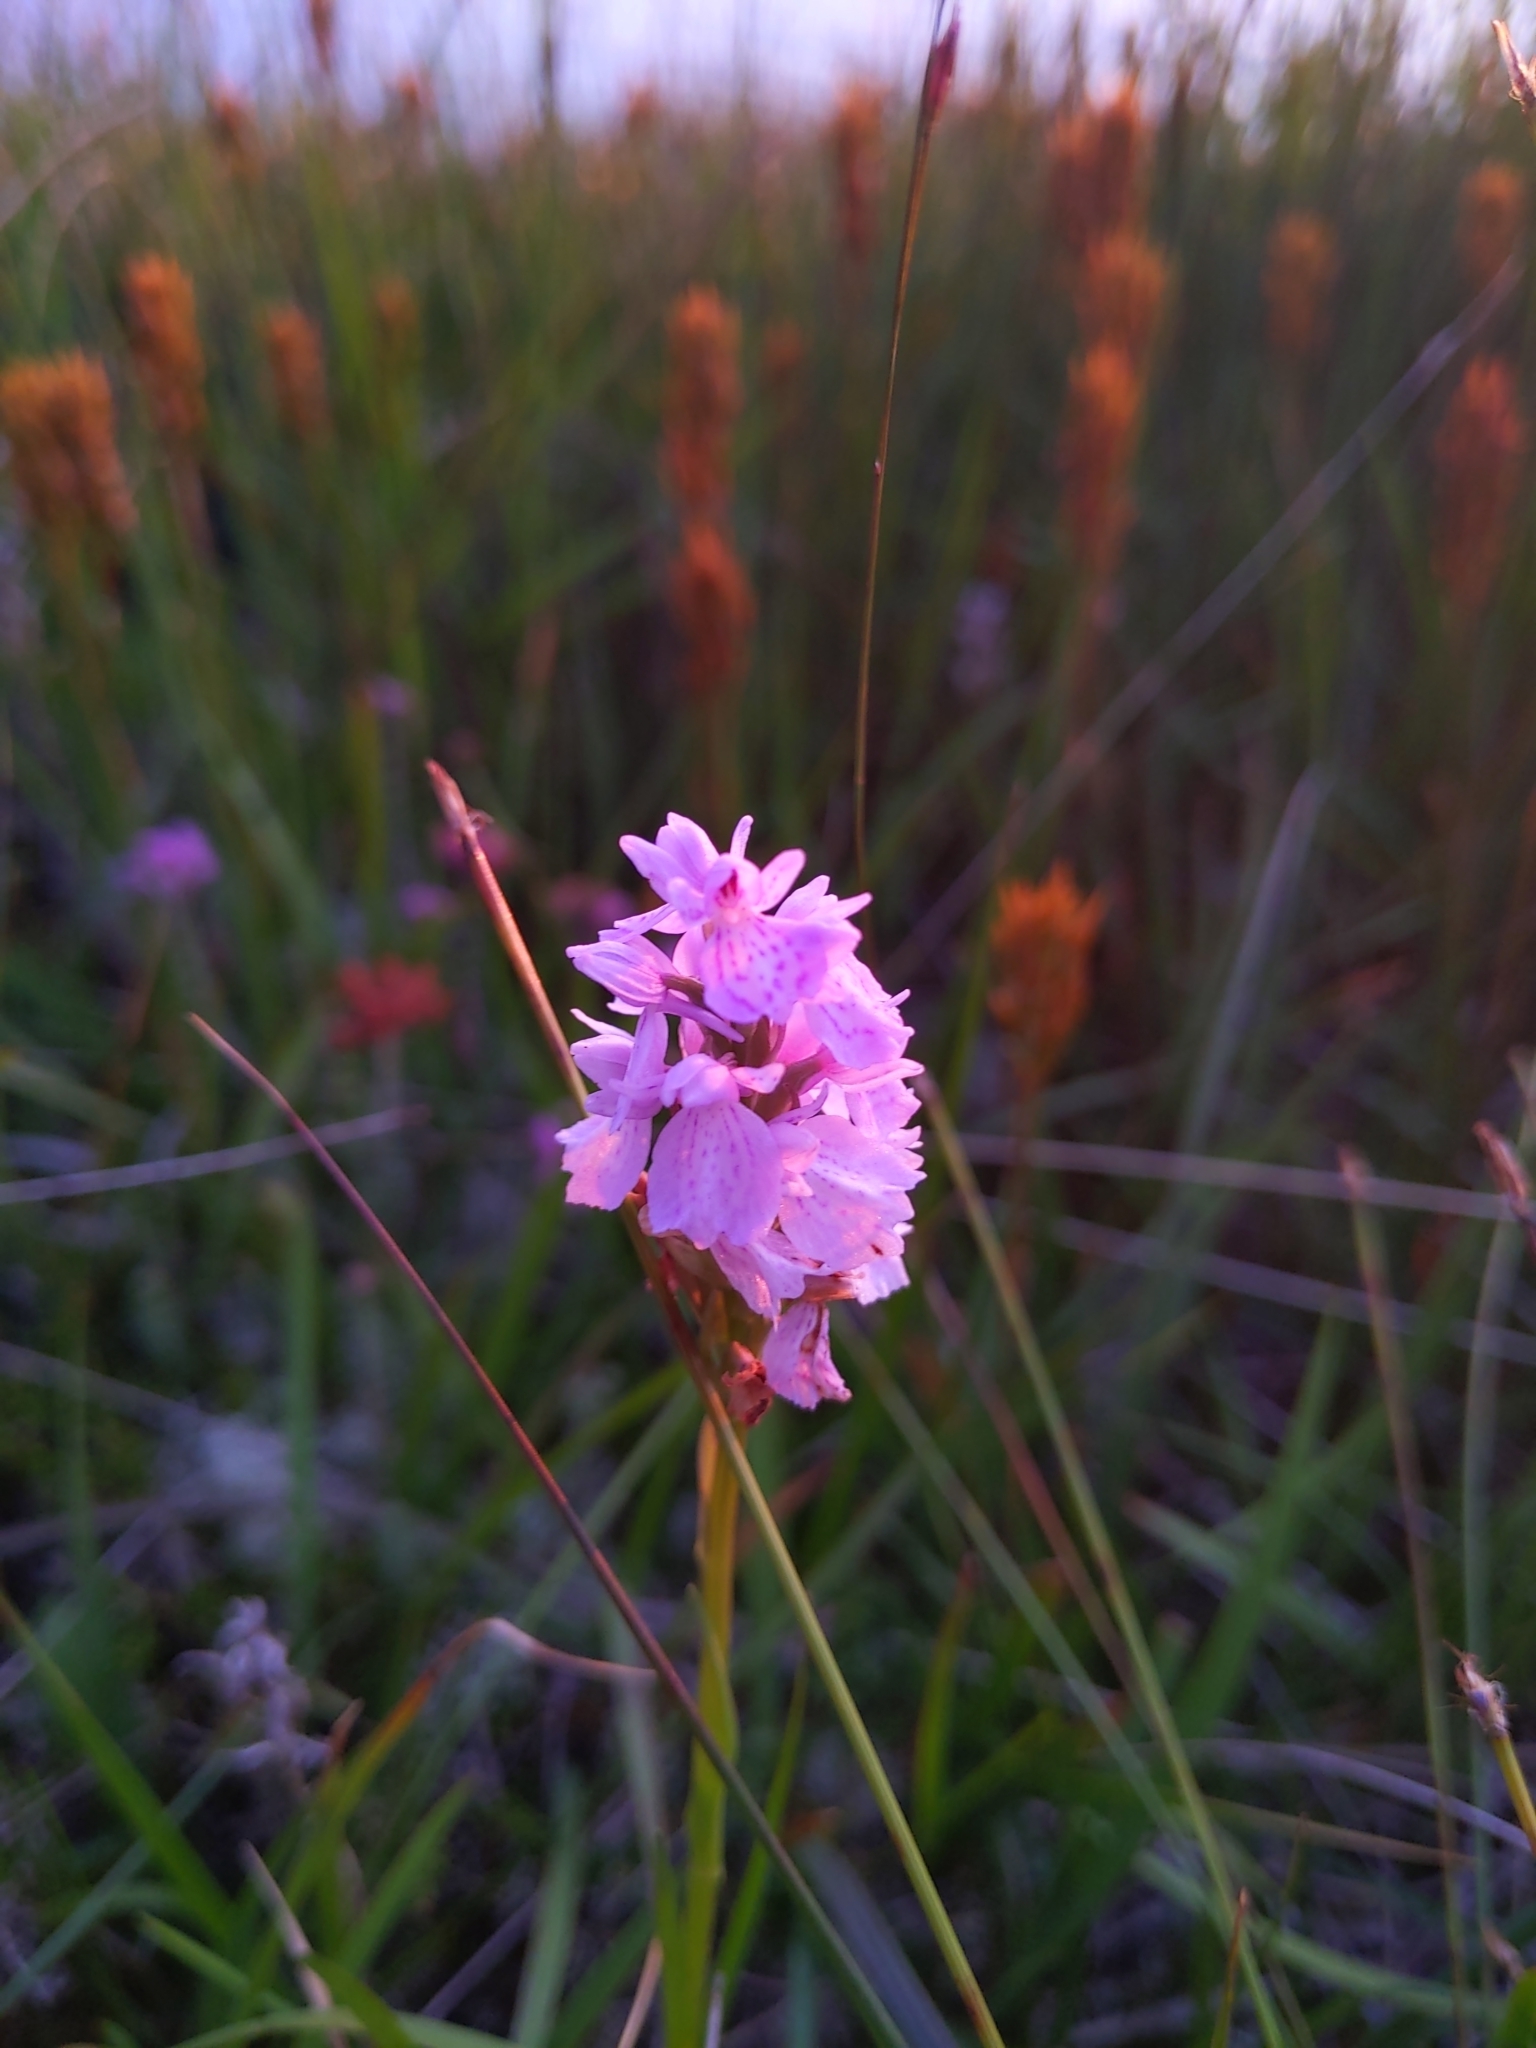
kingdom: Plantae
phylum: Tracheophyta
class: Liliopsida
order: Asparagales
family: Orchidaceae
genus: Dactylorhiza
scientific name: Dactylorhiza maculata
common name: Heath spotted-orchid
